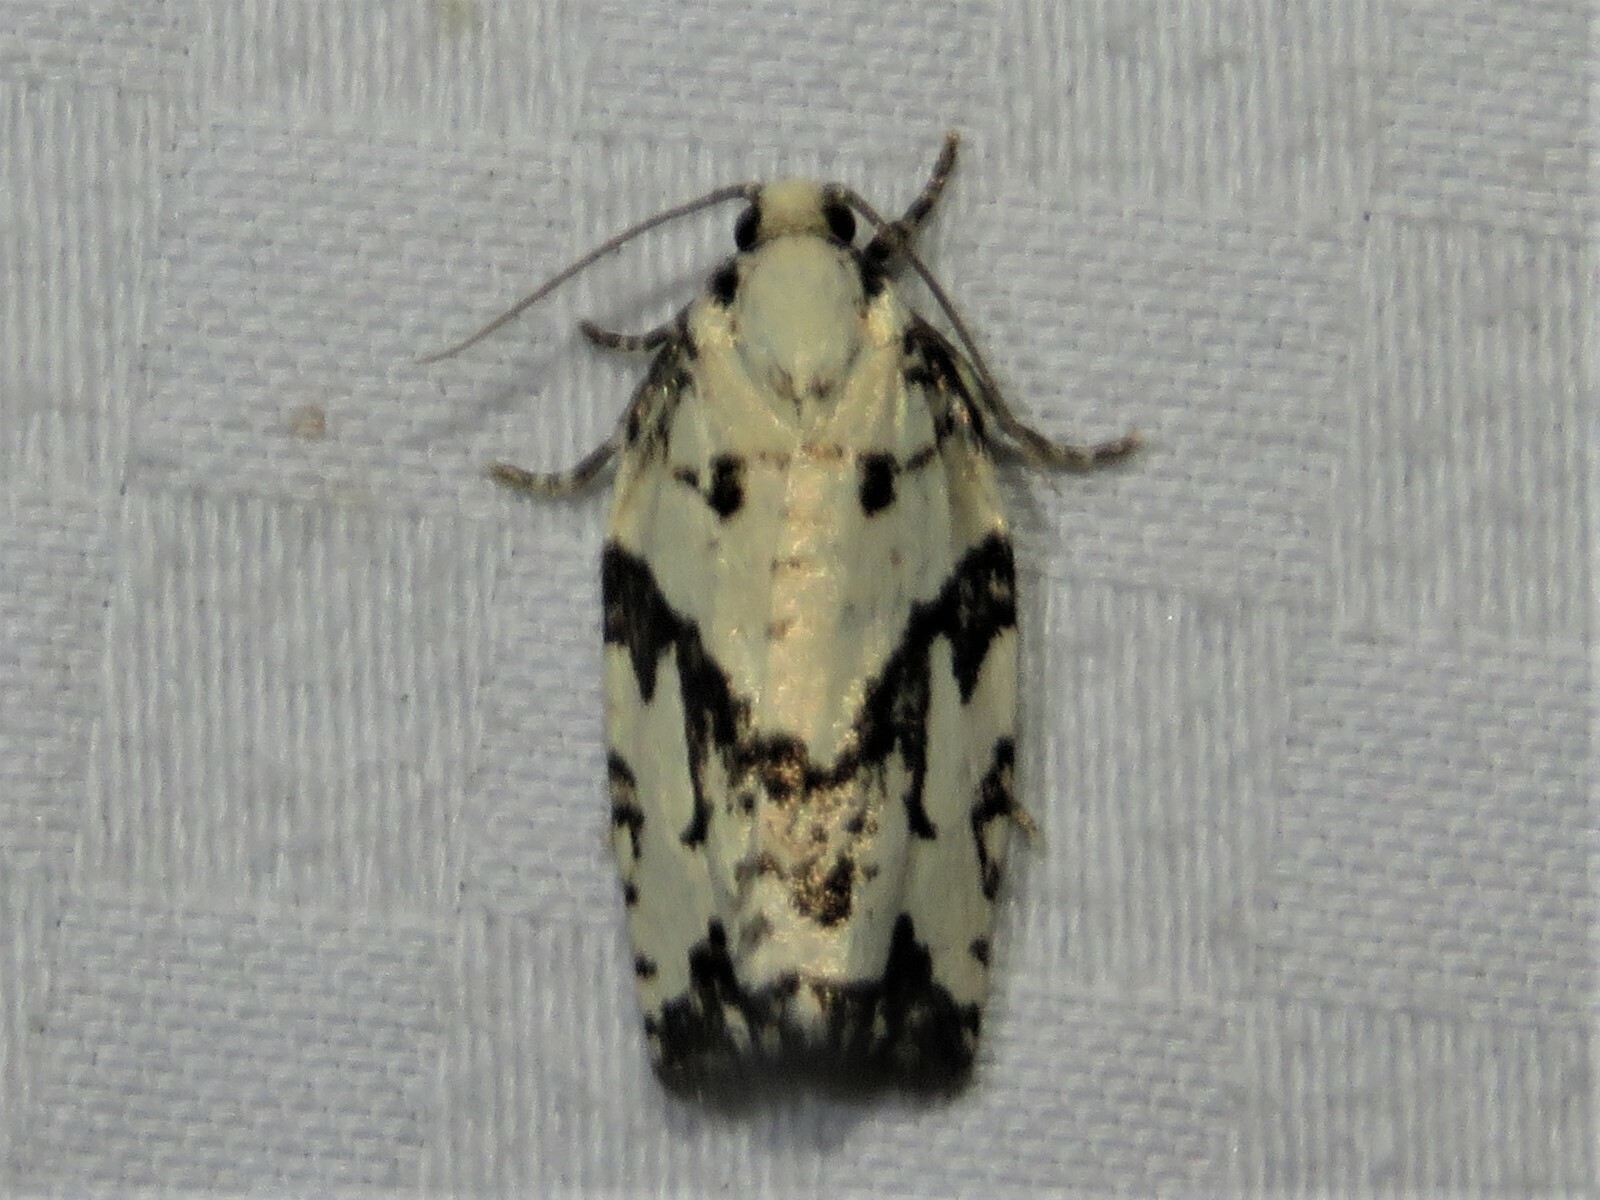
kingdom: Animalia
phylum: Arthropoda
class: Insecta
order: Lepidoptera
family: Tortricidae
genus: Archips
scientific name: Archips dissitana
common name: Boldly-marked archips moth
